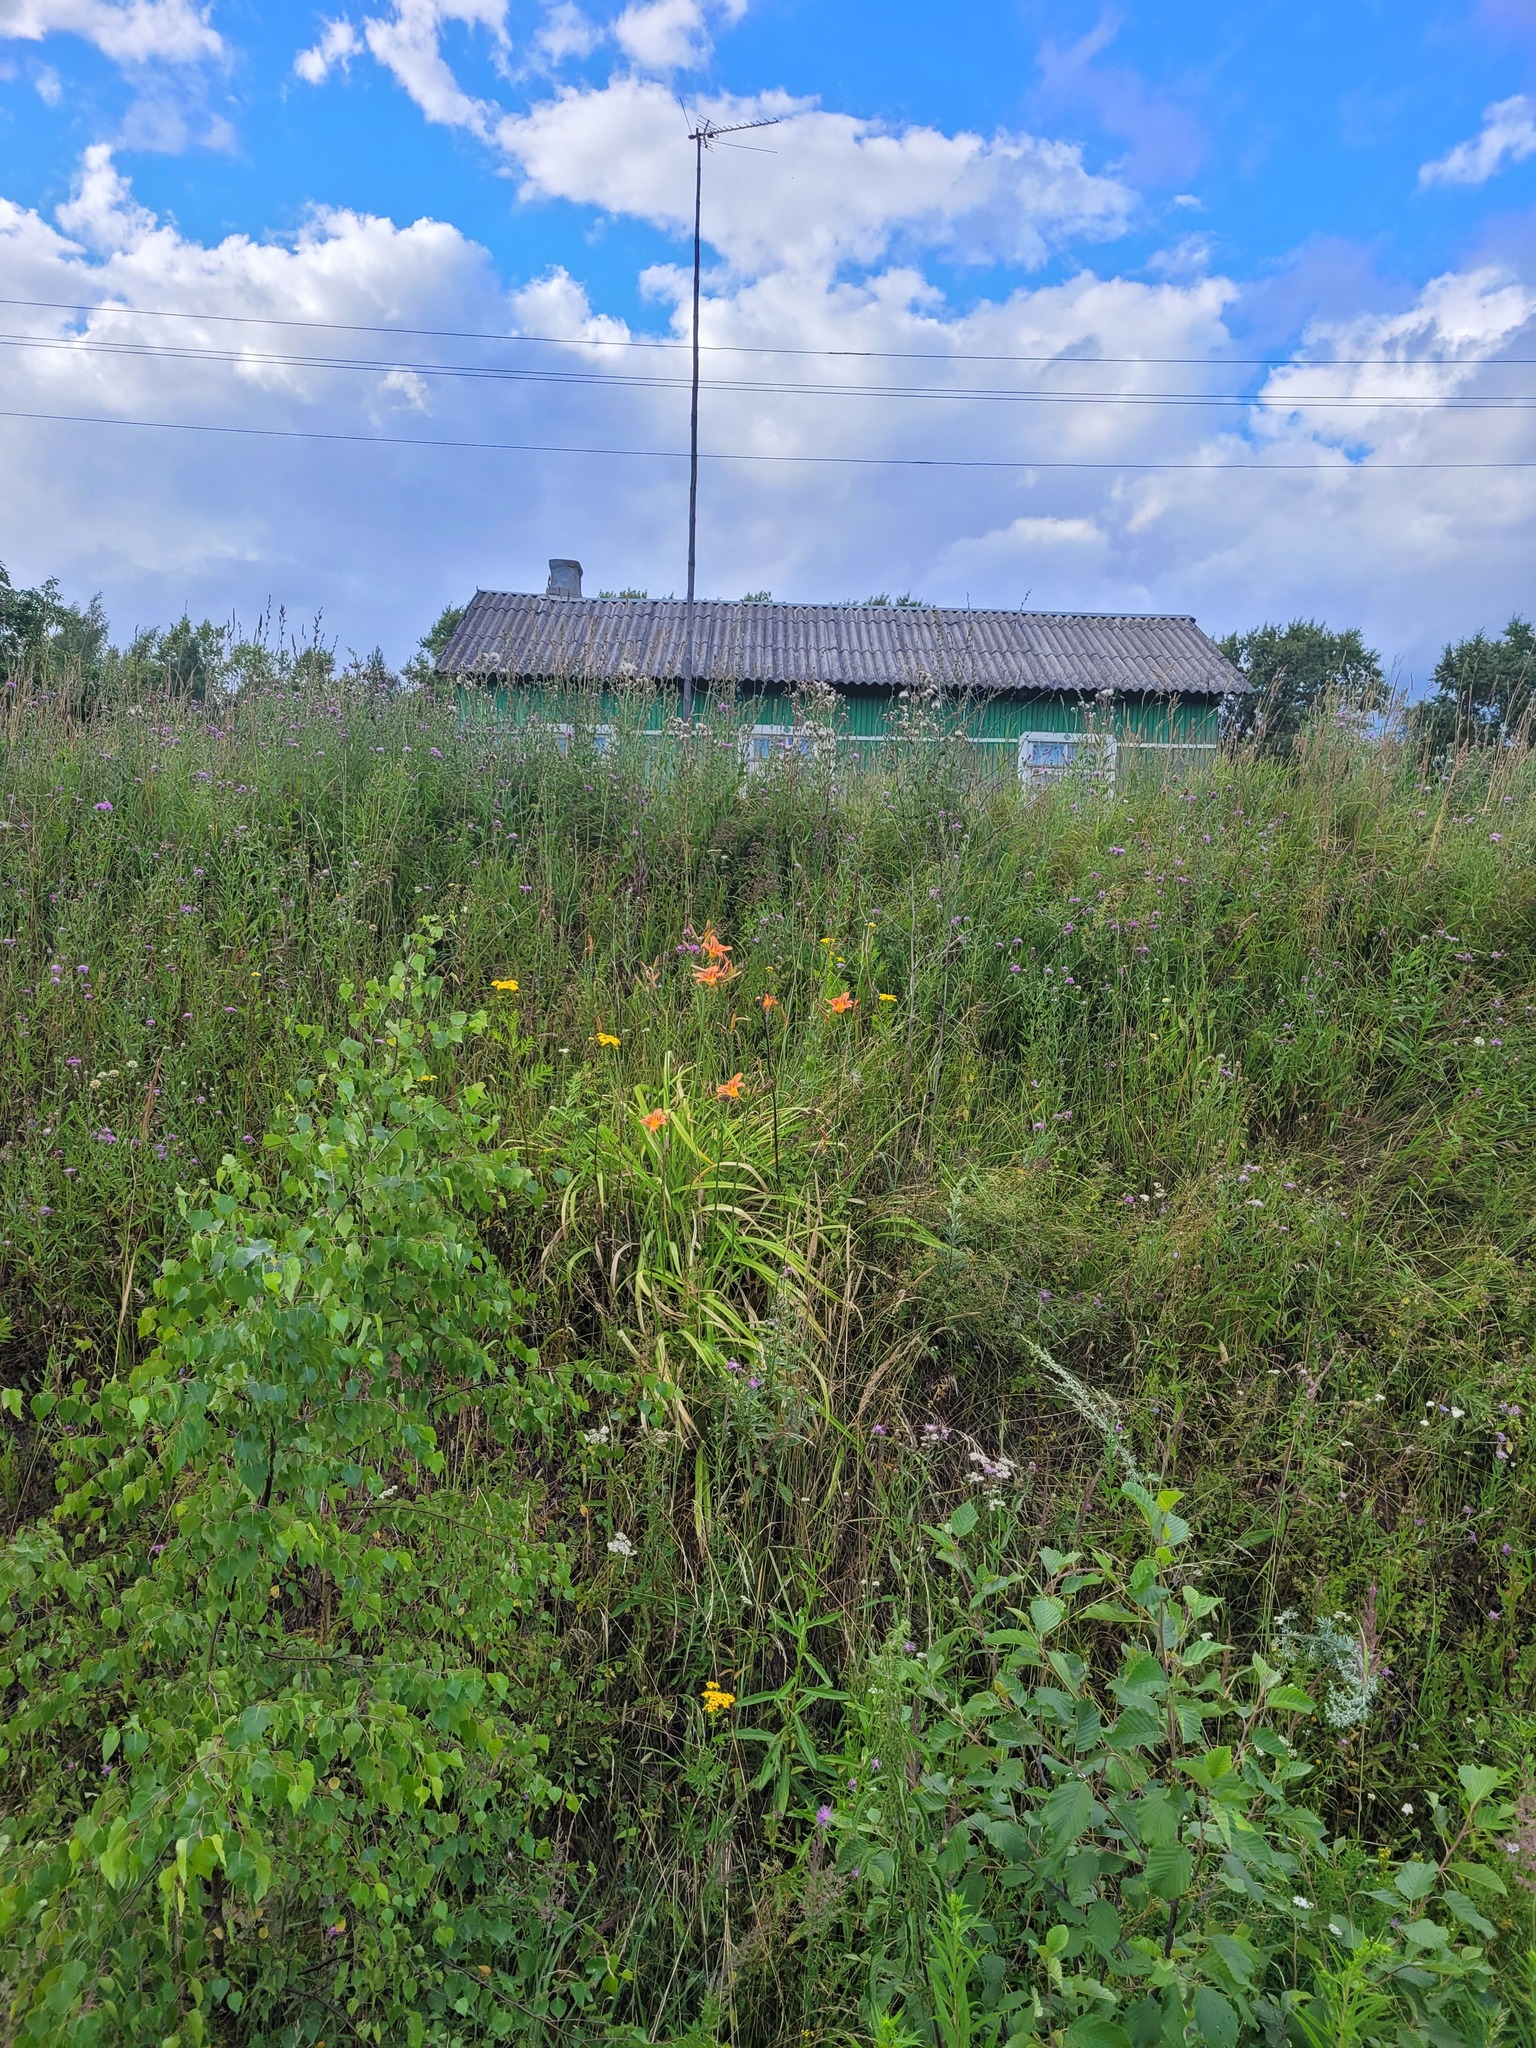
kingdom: Plantae
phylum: Tracheophyta
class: Liliopsida
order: Asparagales
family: Asphodelaceae
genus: Hemerocallis
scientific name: Hemerocallis fulva
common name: Orange day-lily
